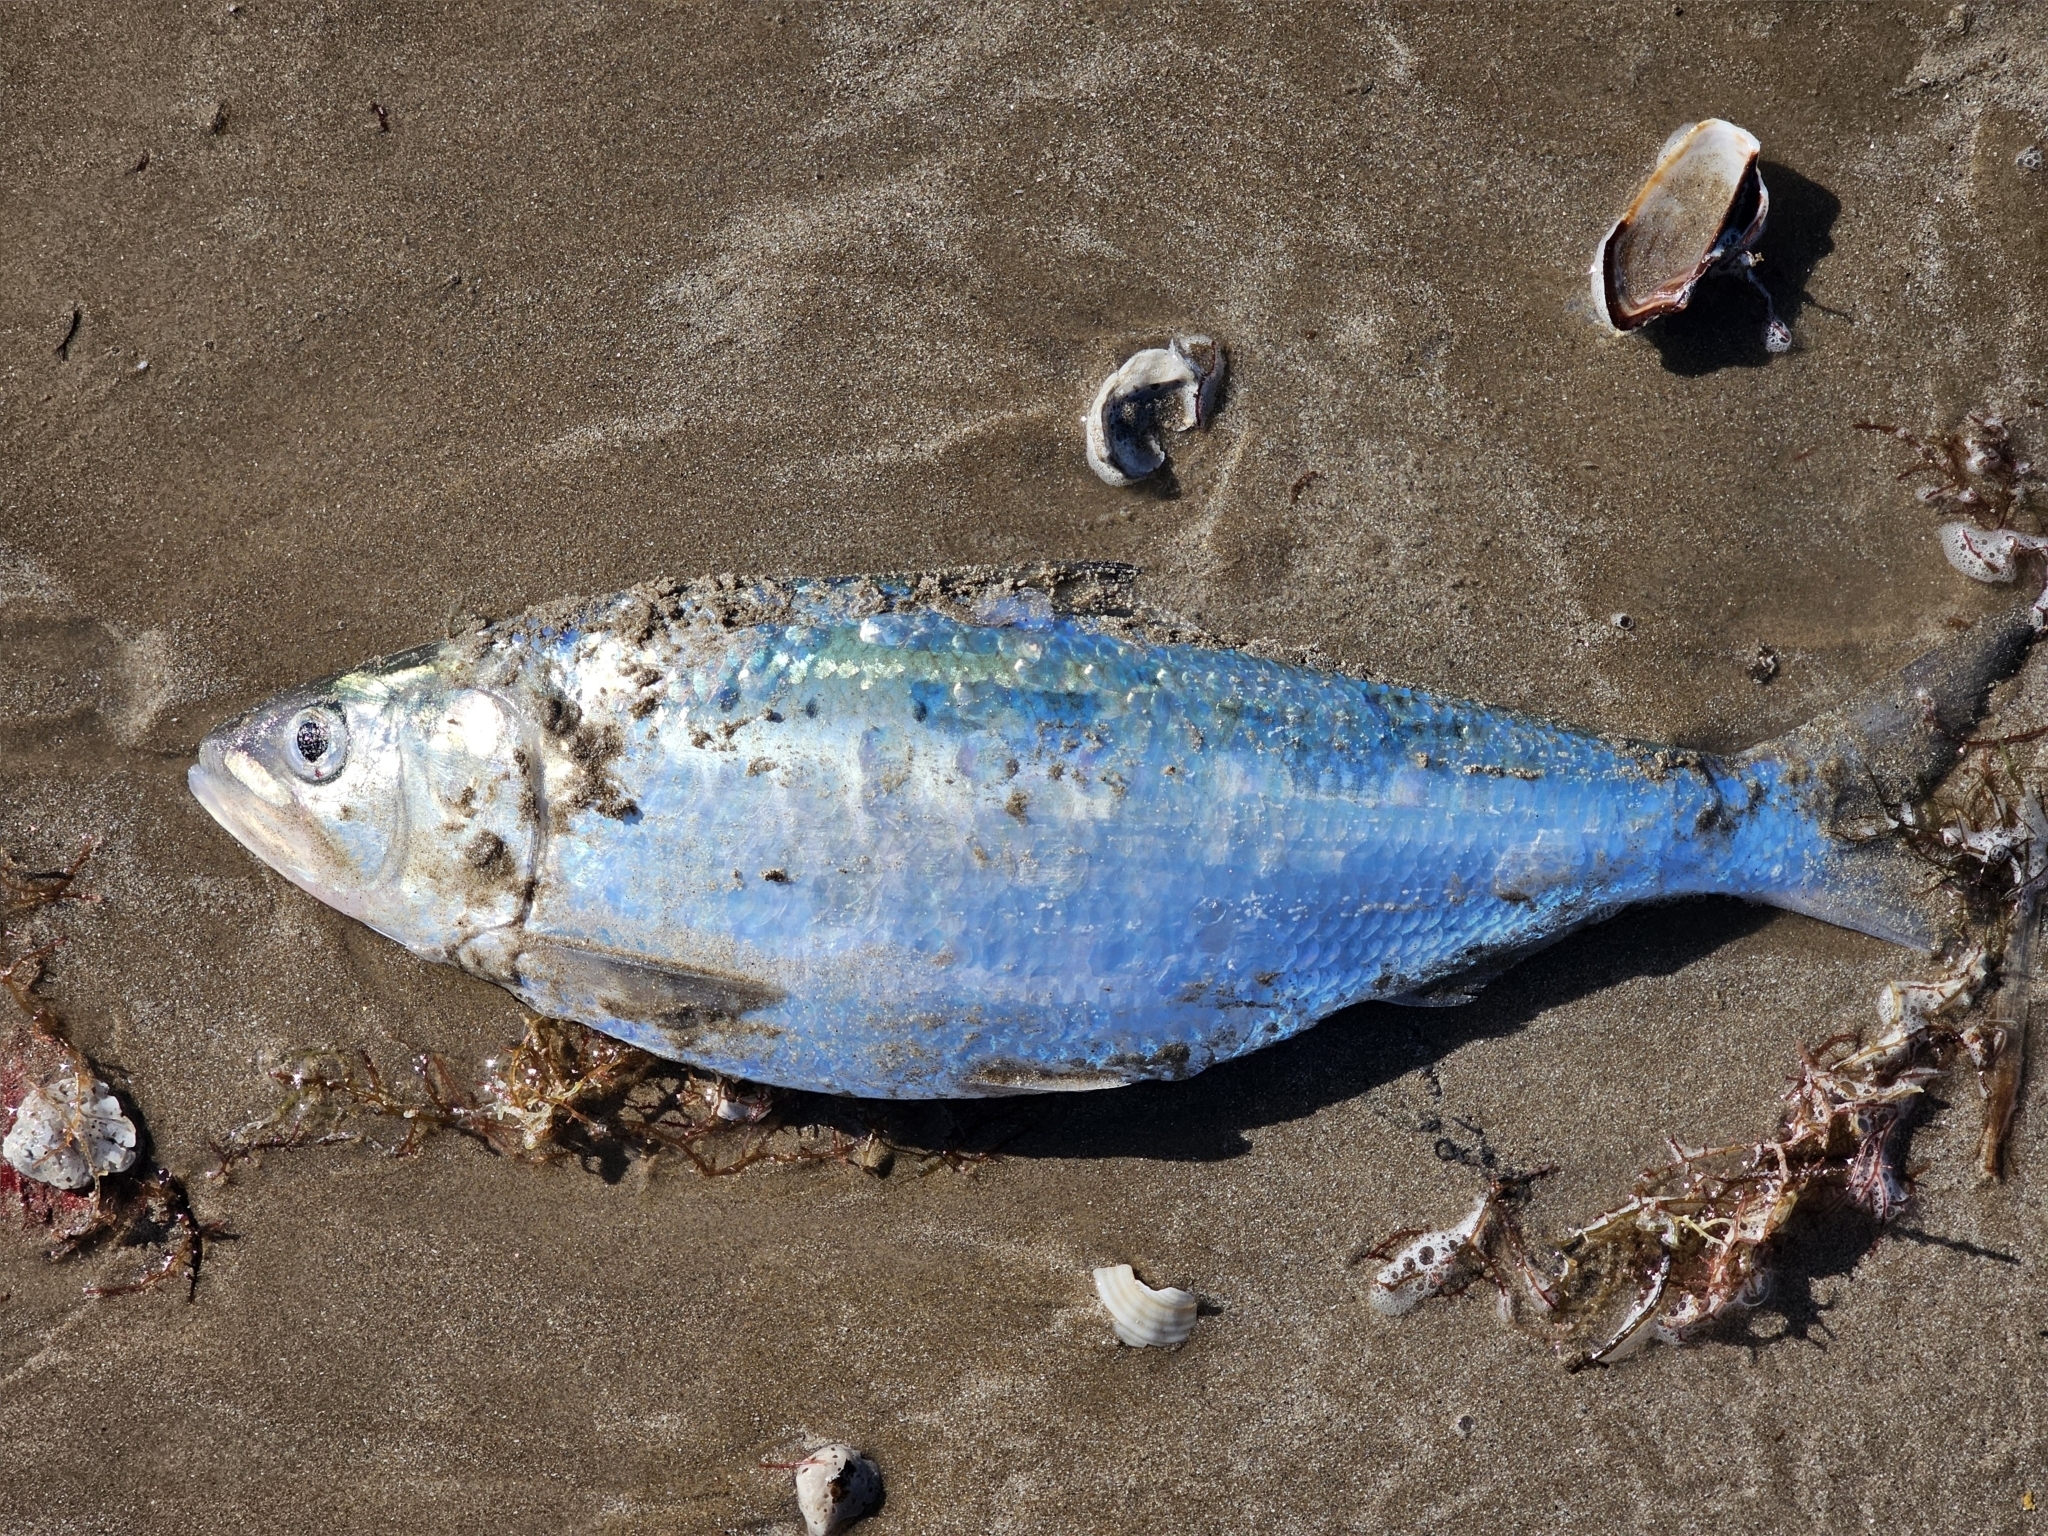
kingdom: Animalia
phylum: Chordata
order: Clupeiformes
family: Clupeidae
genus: Opisthonema
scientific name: Opisthonema oglinum
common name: Thread herring
